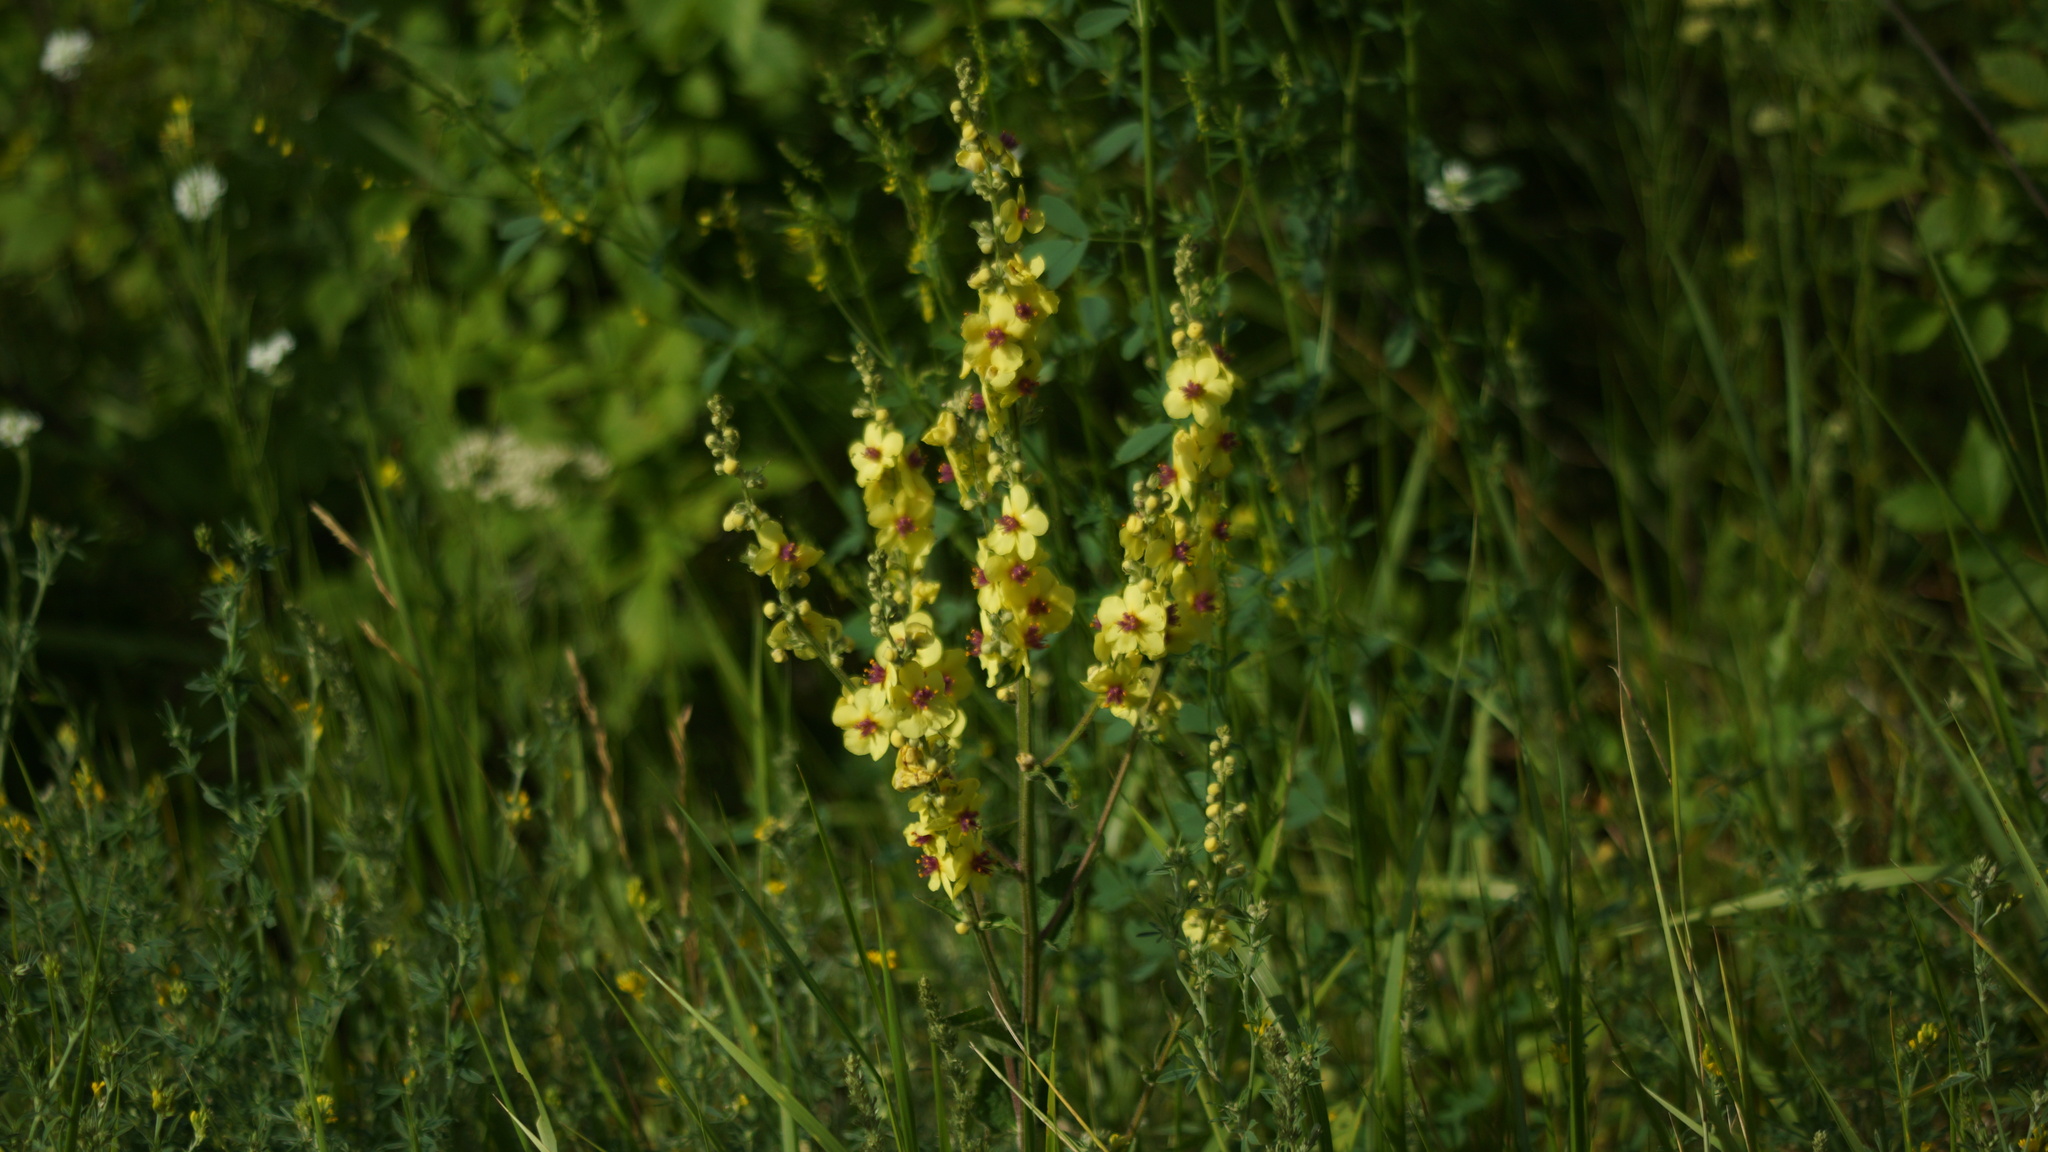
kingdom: Plantae
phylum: Tracheophyta
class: Magnoliopsida
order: Lamiales
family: Scrophulariaceae
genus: Verbascum
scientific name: Verbascum chaixii
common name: Nettle-leaved mullein
